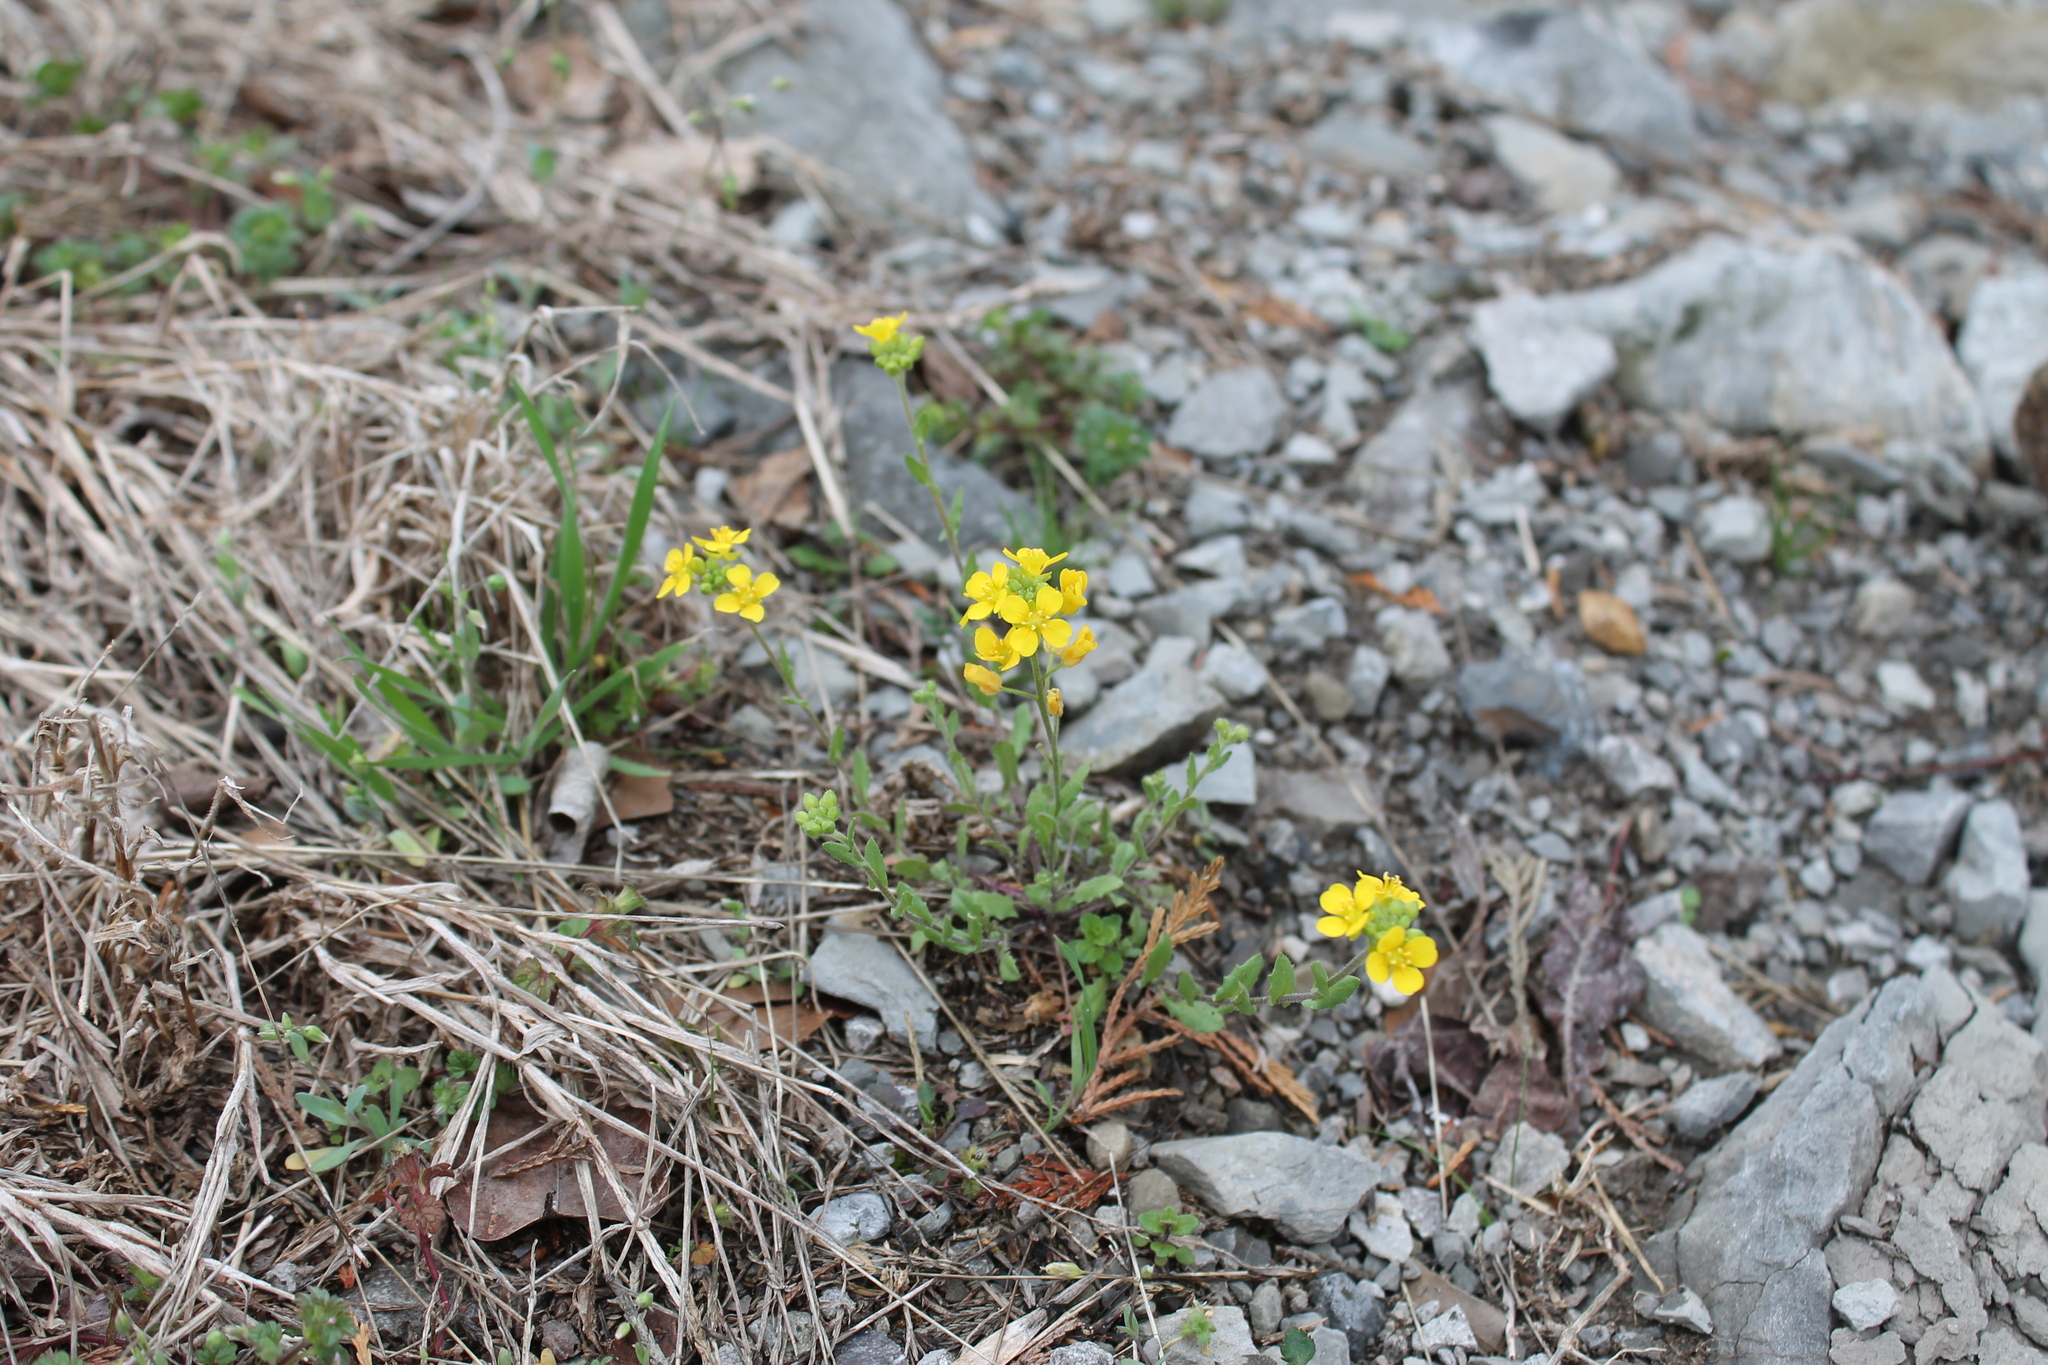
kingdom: Plantae
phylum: Tracheophyta
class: Magnoliopsida
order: Brassicales
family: Brassicaceae
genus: Paysonia
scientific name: Paysonia lescurii
